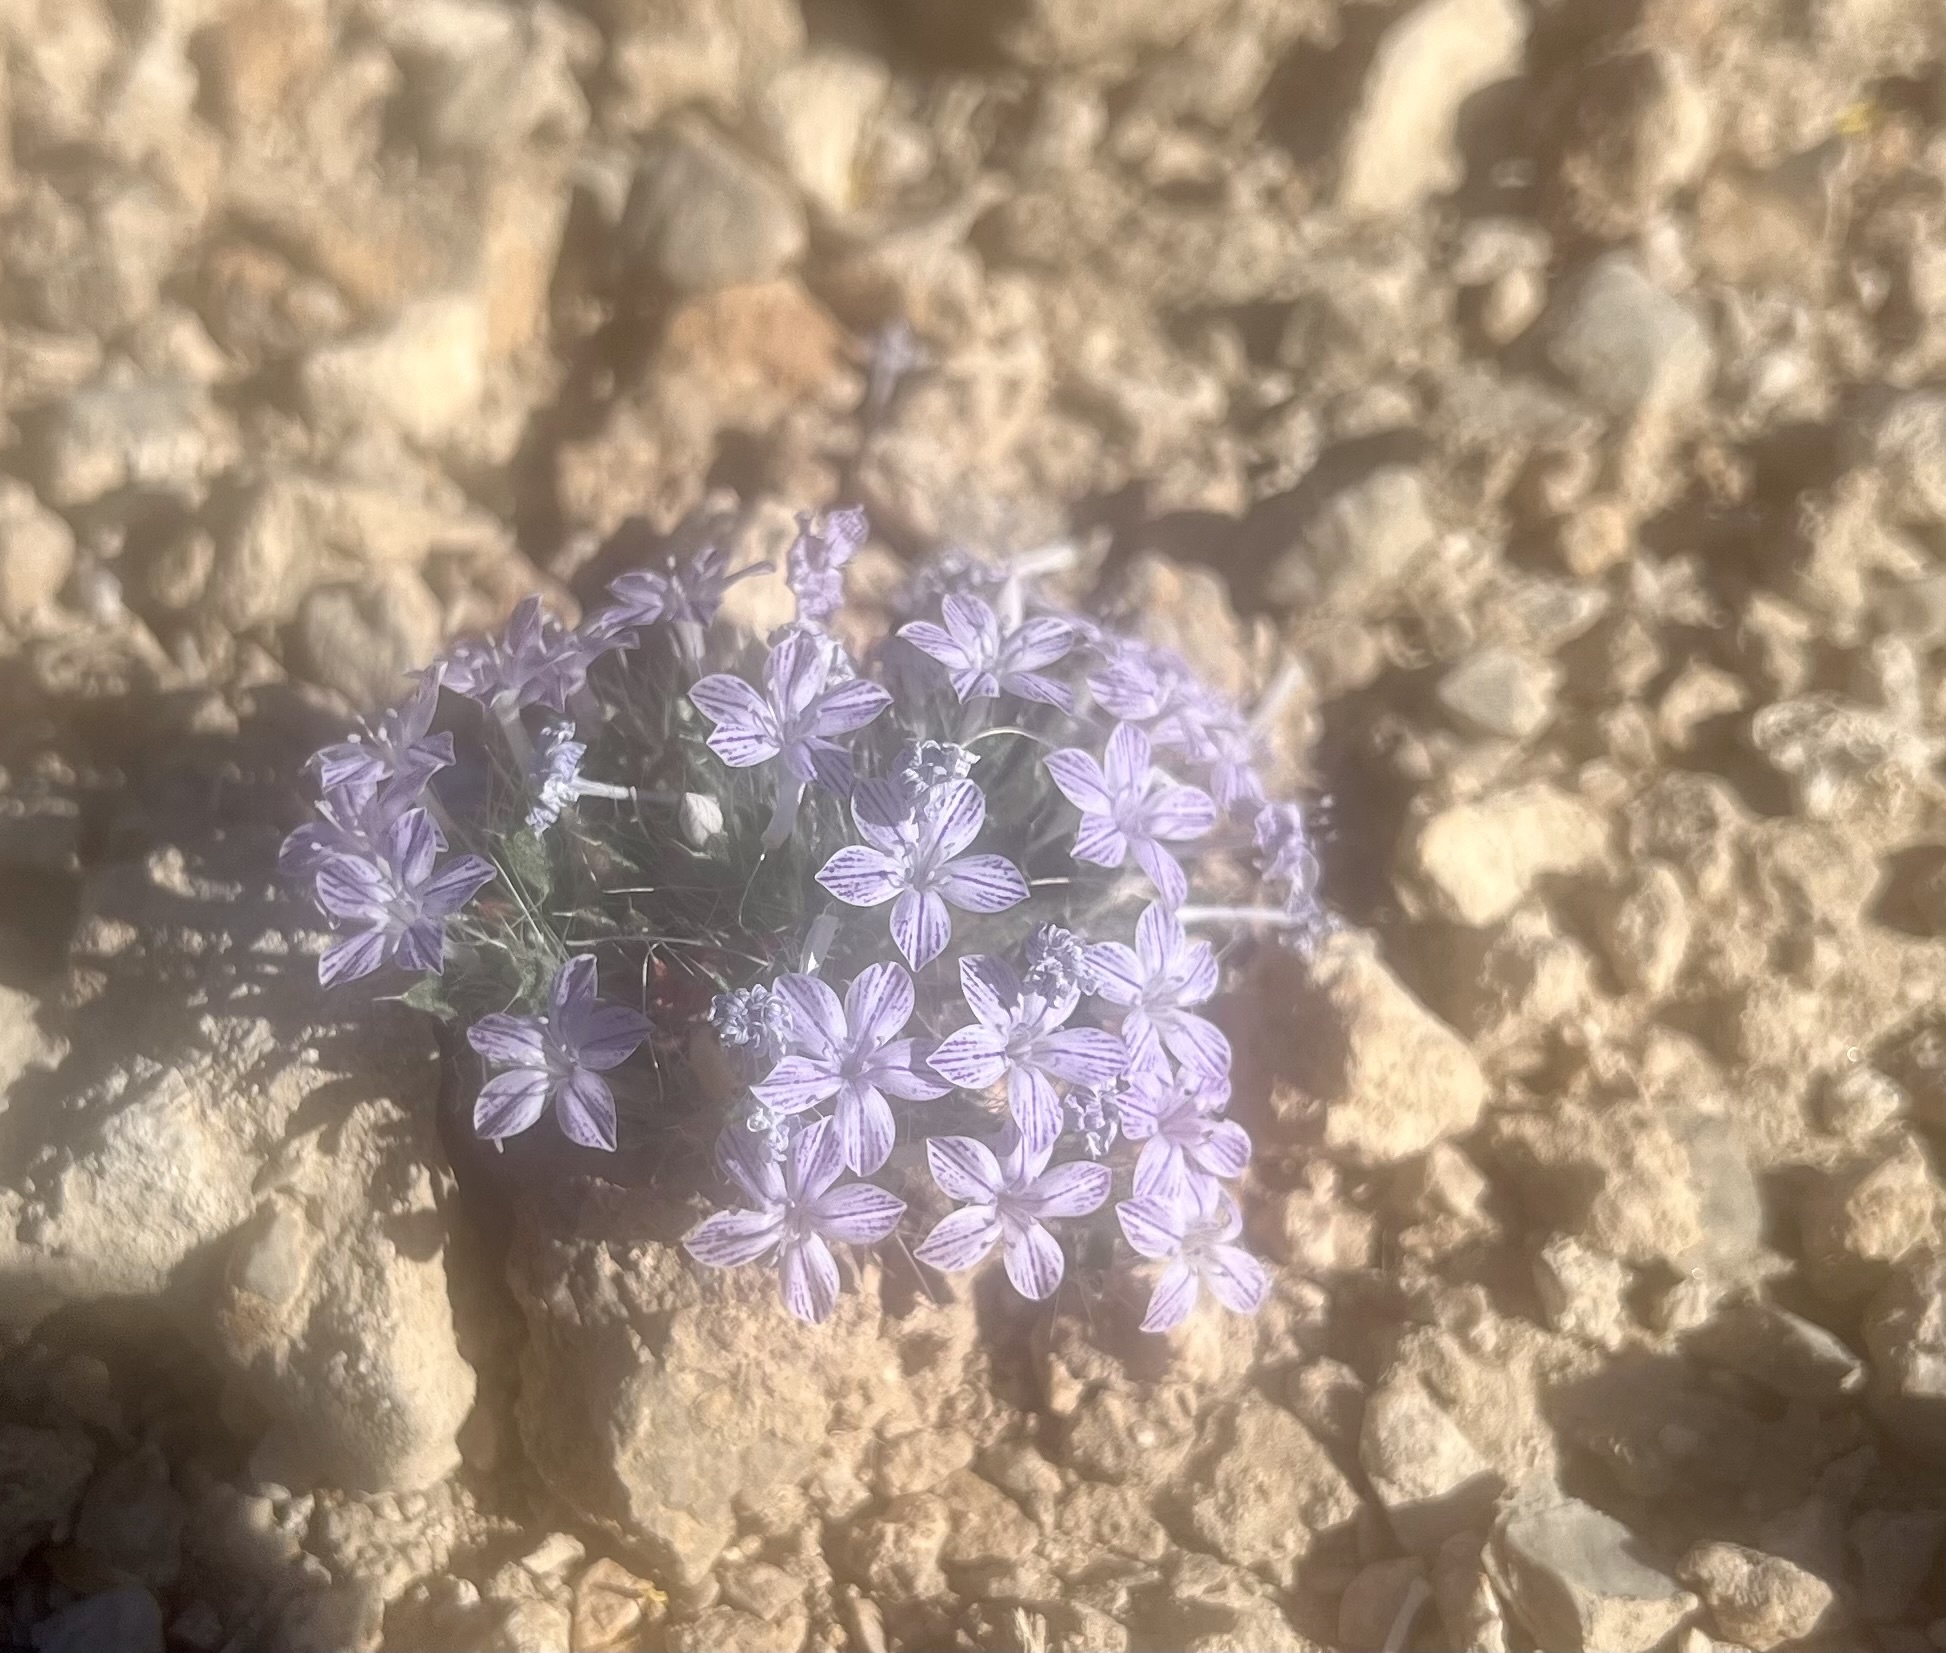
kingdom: Plantae
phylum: Tracheophyta
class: Magnoliopsida
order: Ericales
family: Polemoniaceae
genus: Langloisia
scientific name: Langloisia setosissima
